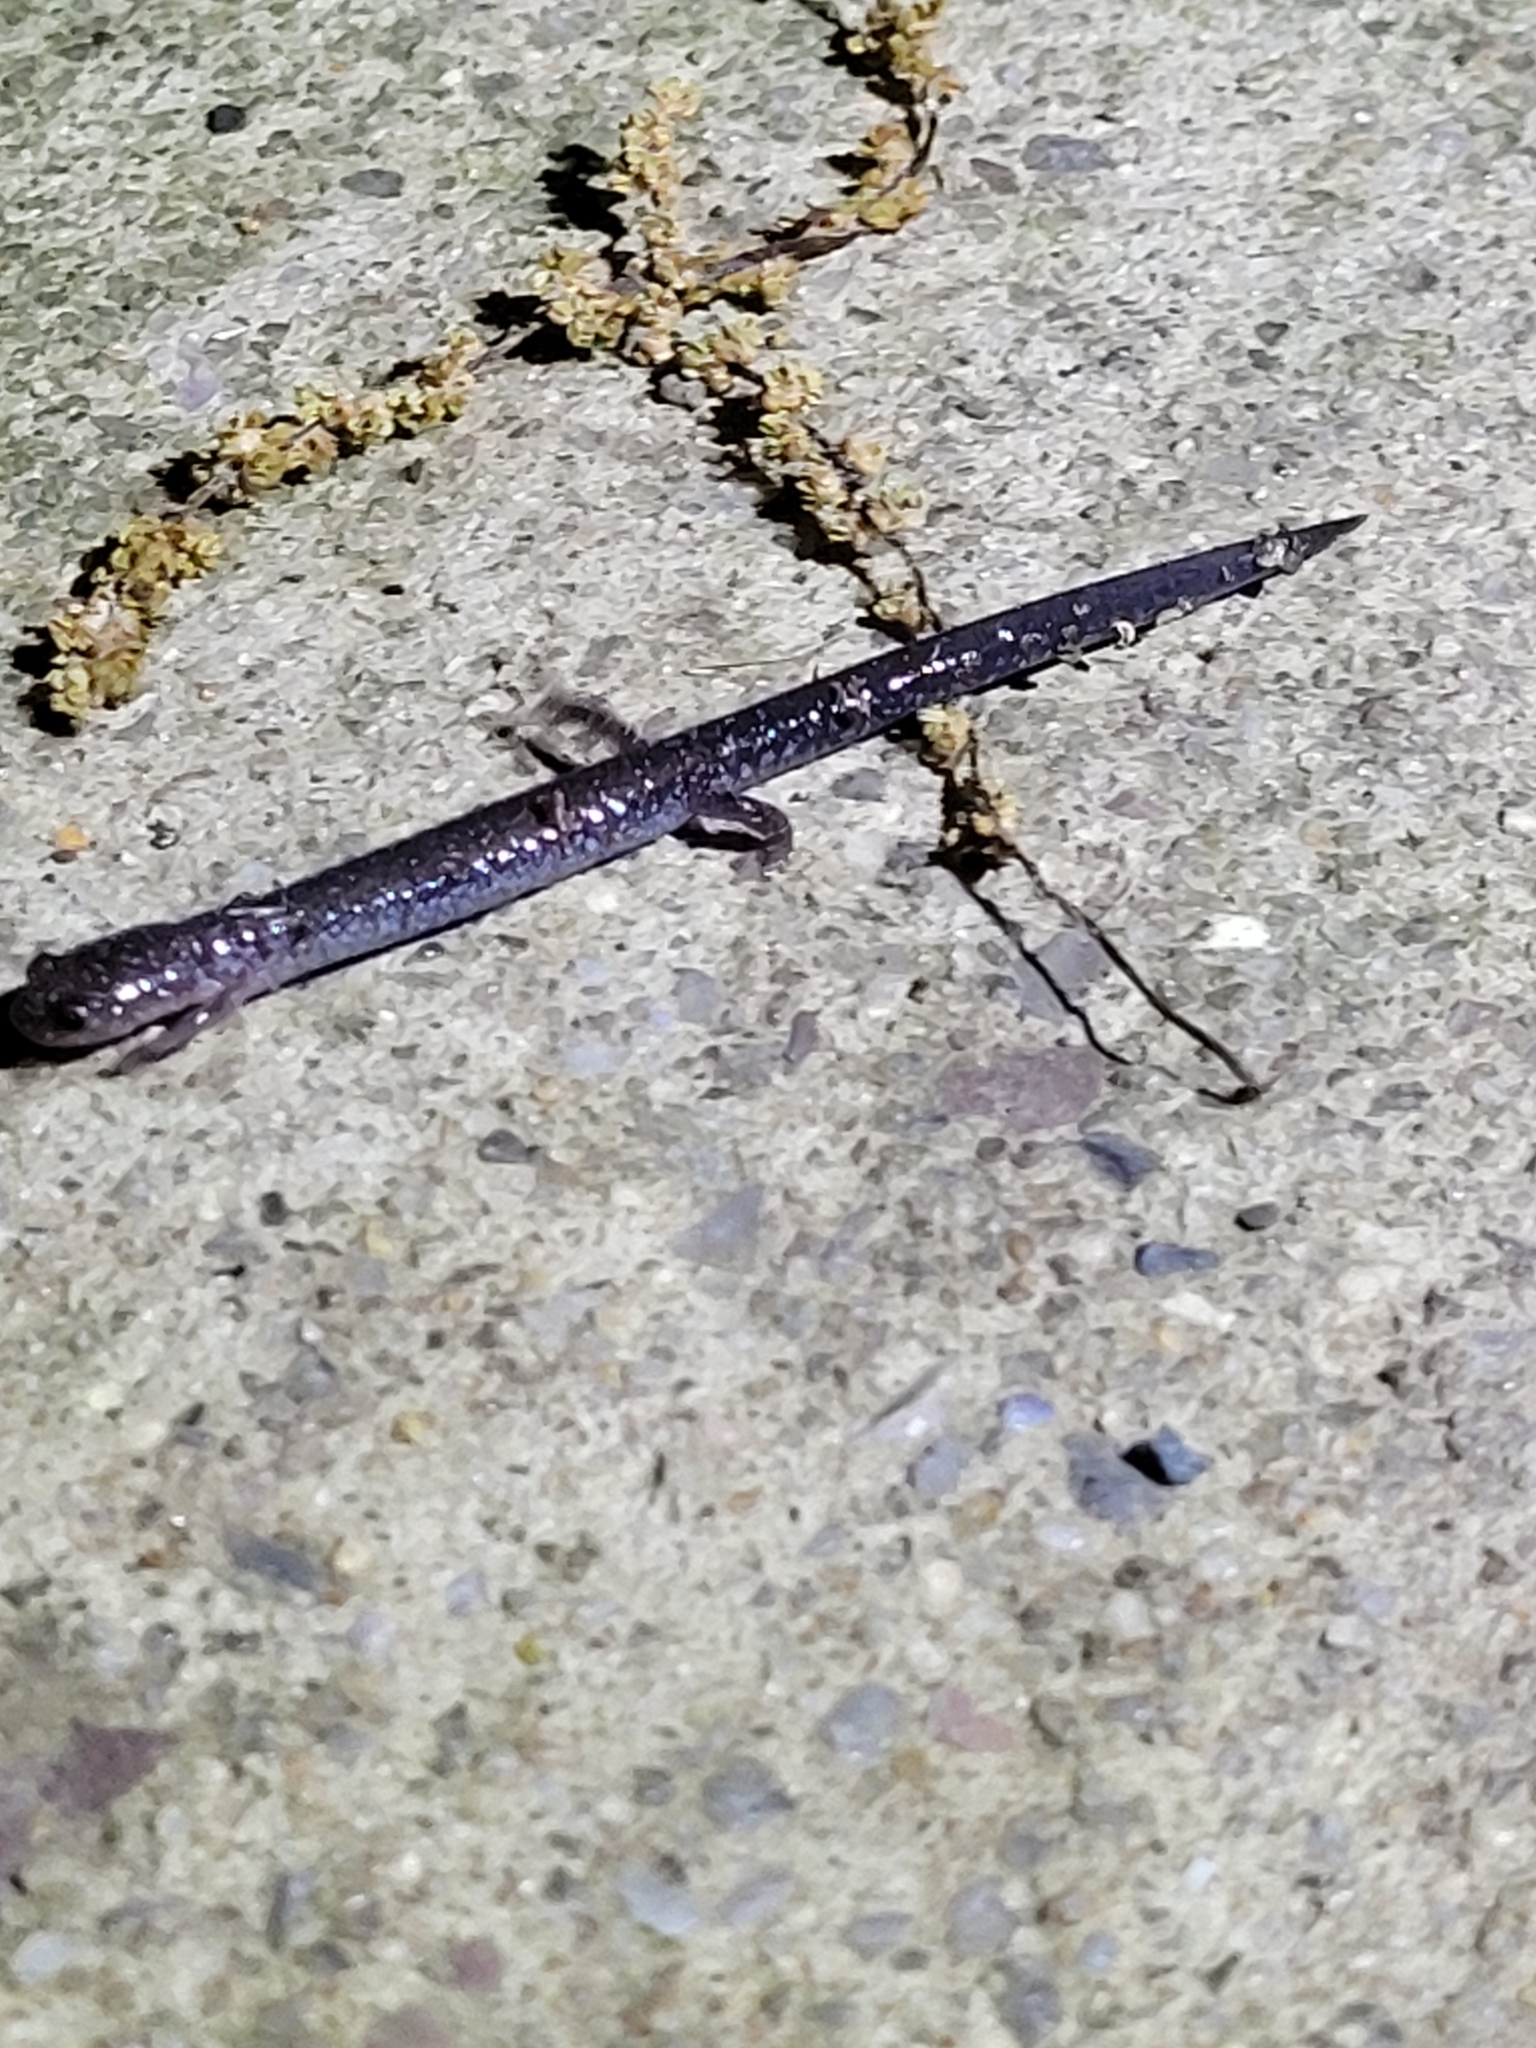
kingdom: Animalia
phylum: Chordata
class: Amphibia
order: Caudata
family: Plethodontidae
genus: Plethodon
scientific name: Plethodon cinereus
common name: Redback salamander
